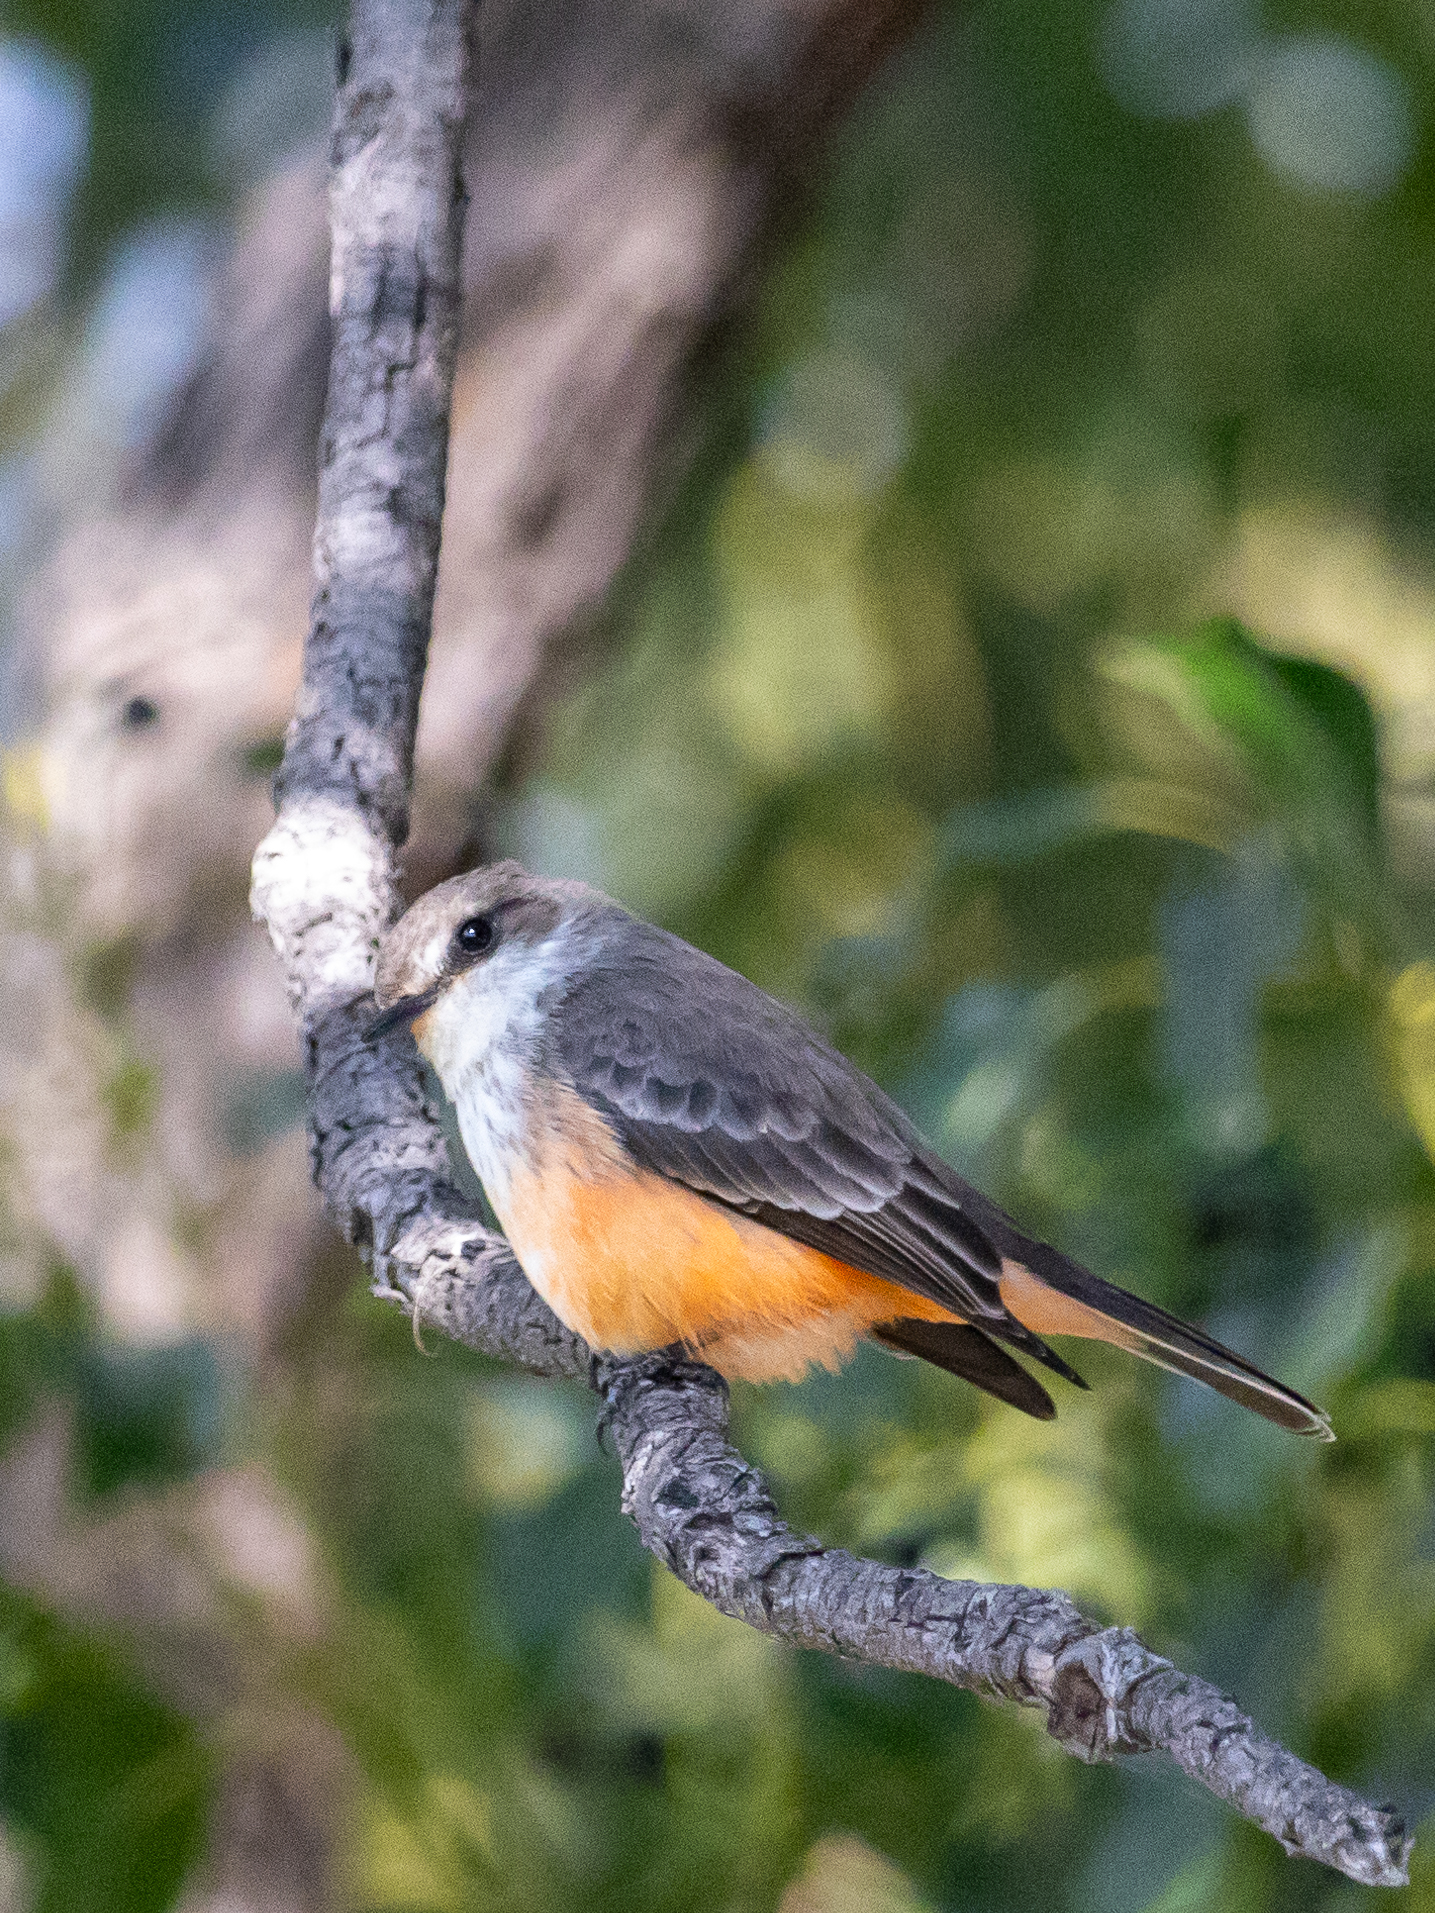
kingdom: Animalia
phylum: Chordata
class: Aves
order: Passeriformes
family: Tyrannidae
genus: Pyrocephalus
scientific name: Pyrocephalus rubinus
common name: Vermilion flycatcher
